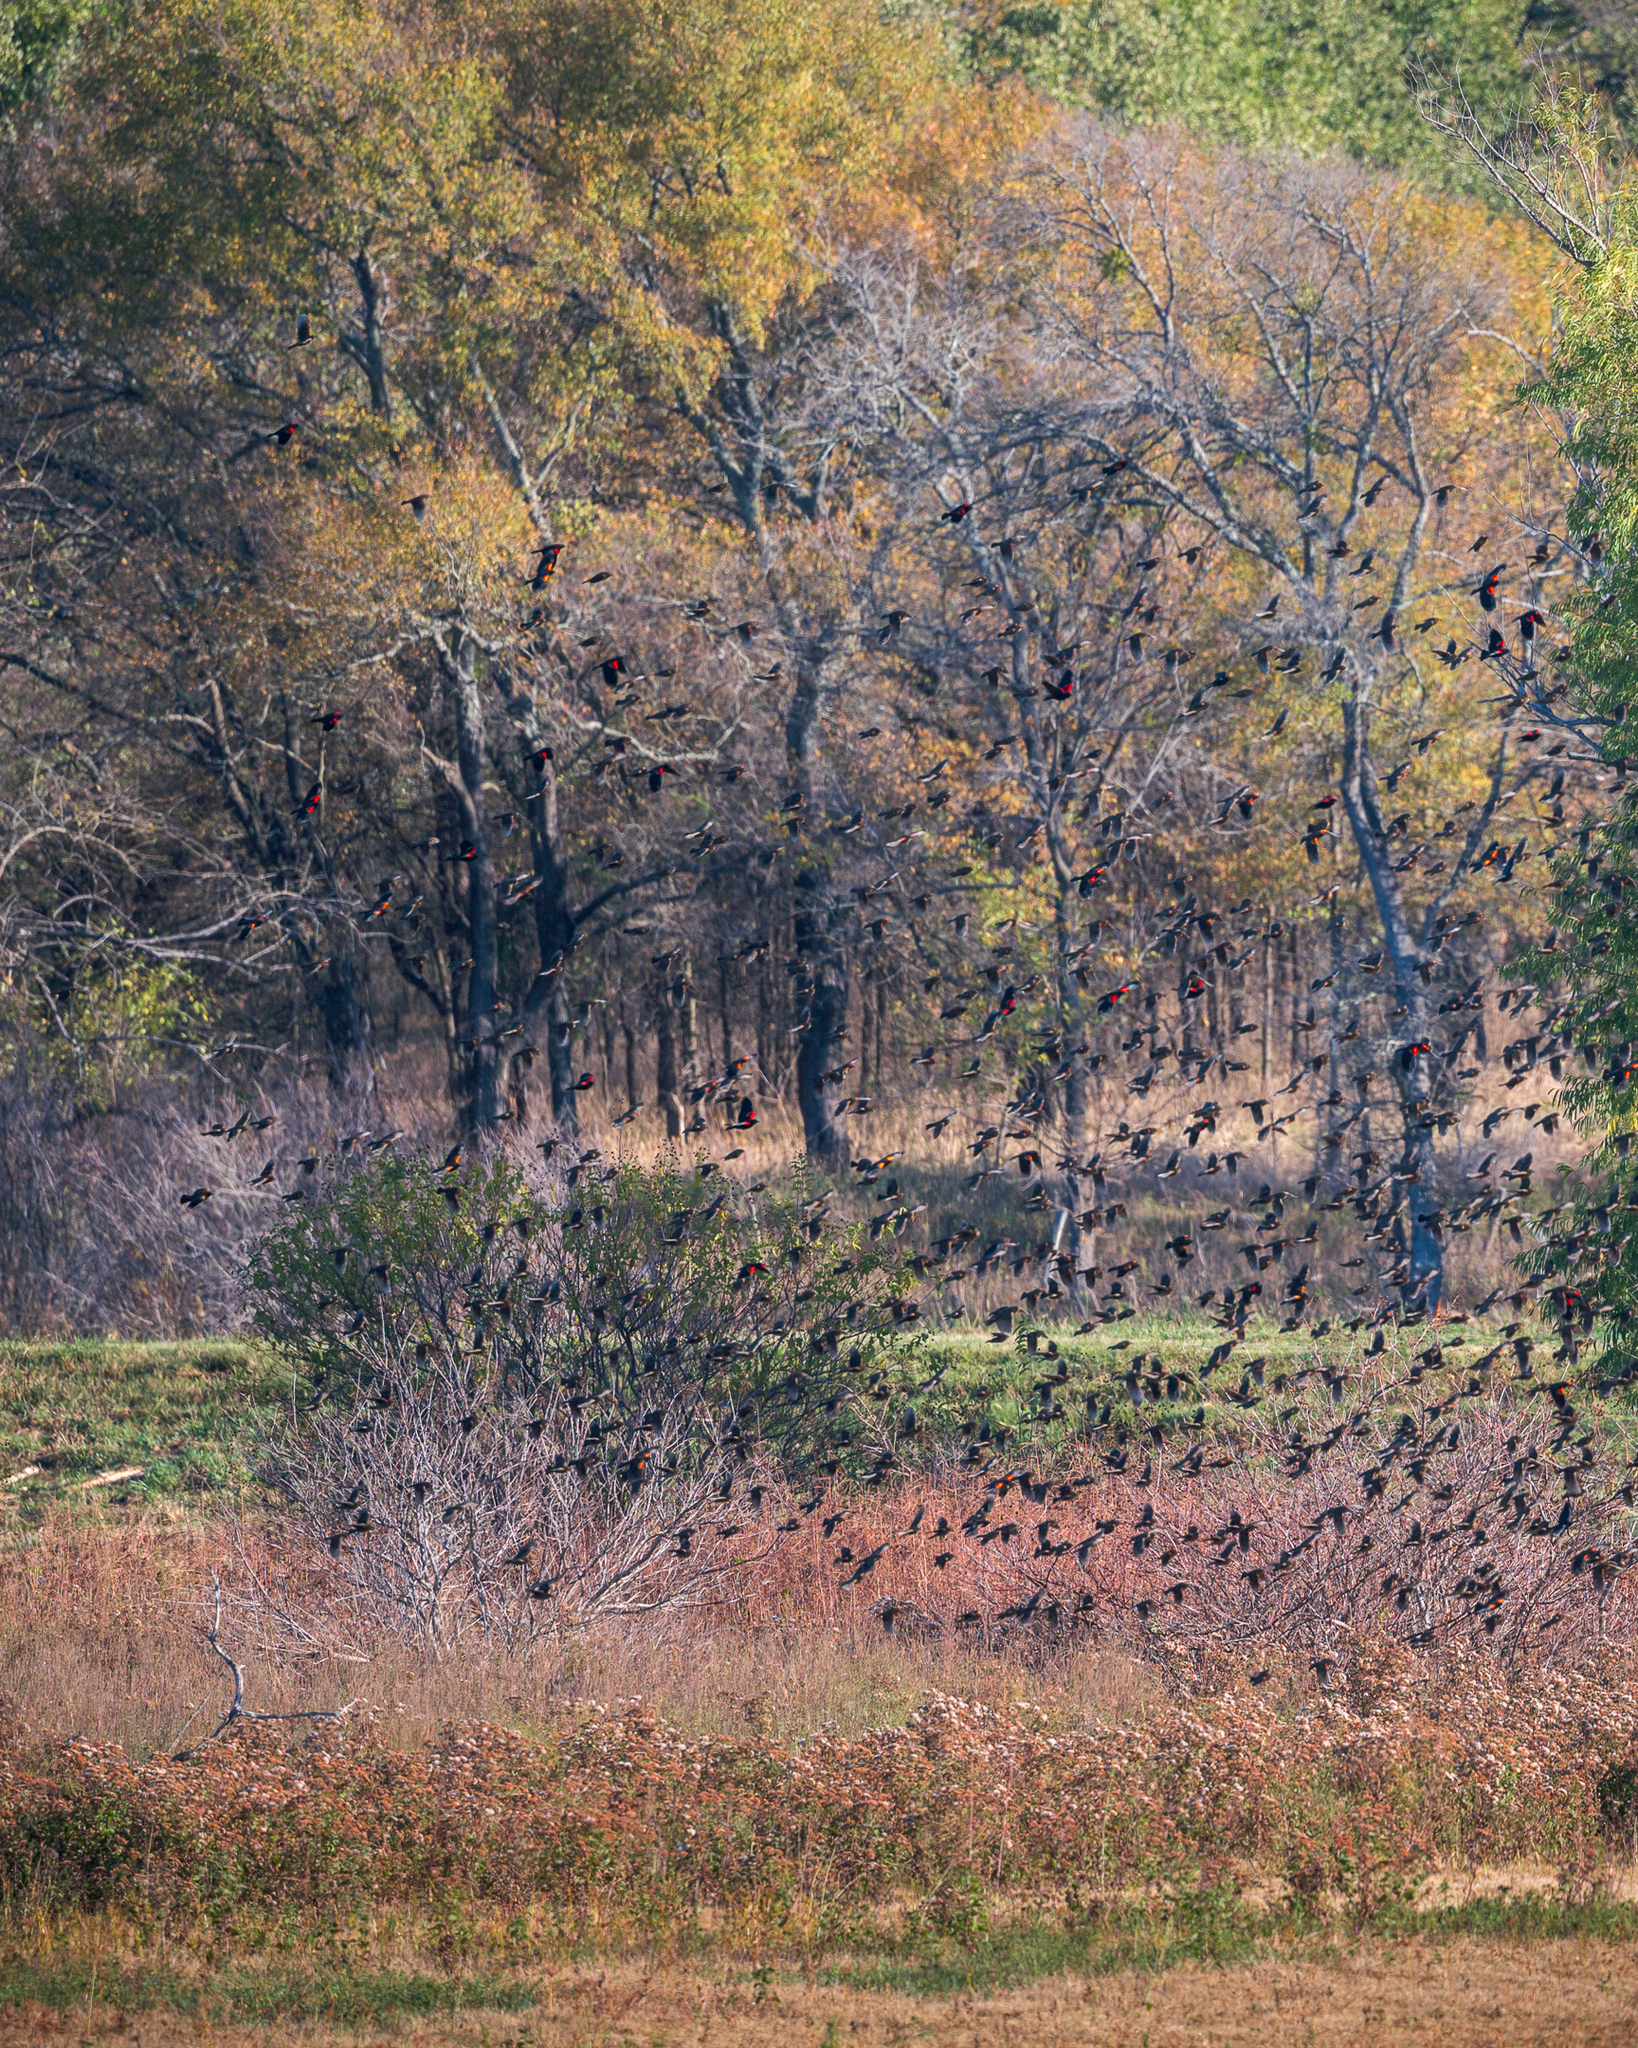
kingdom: Animalia
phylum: Chordata
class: Aves
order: Passeriformes
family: Icteridae
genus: Agelaius
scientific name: Agelaius phoeniceus
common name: Red-winged blackbird
